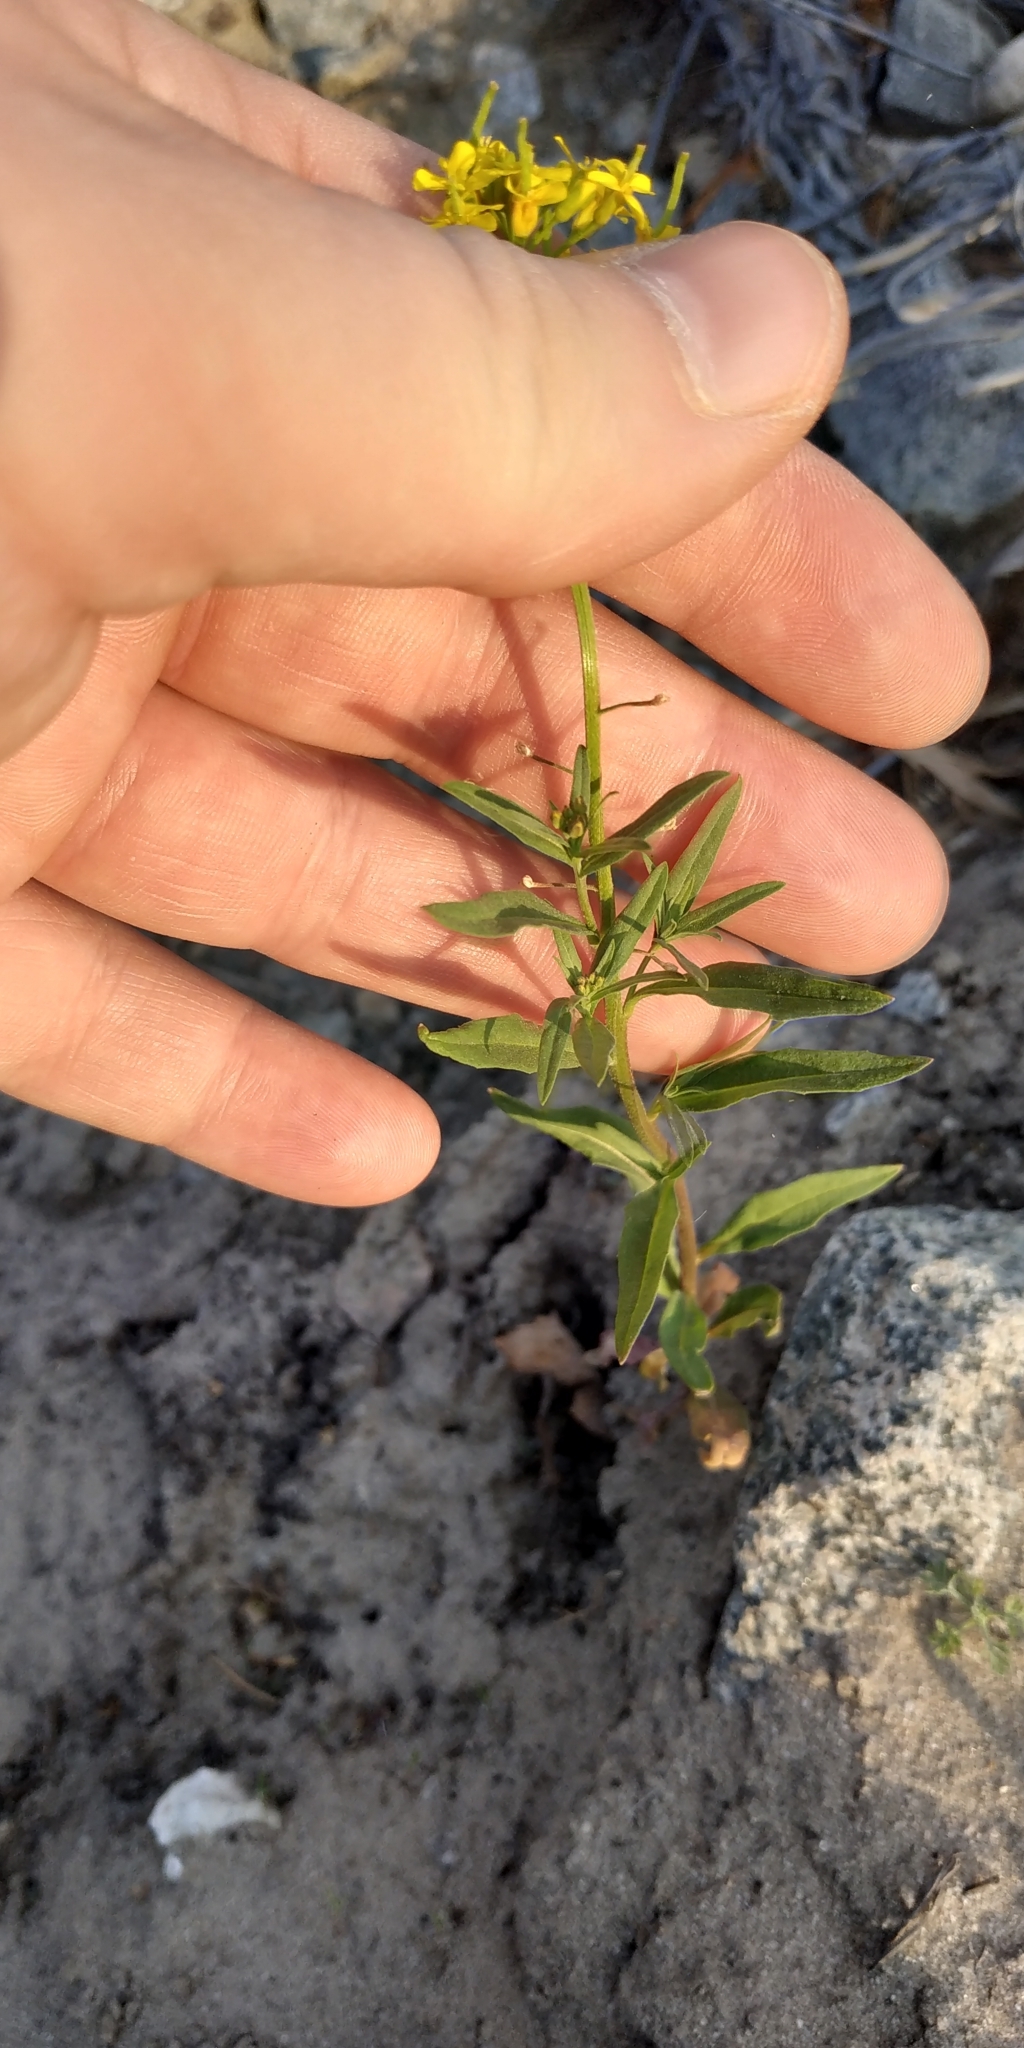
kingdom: Plantae
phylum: Tracheophyta
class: Magnoliopsida
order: Brassicales
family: Brassicaceae
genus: Erysimum
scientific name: Erysimum cheiranthoides
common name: Treacle mustard
